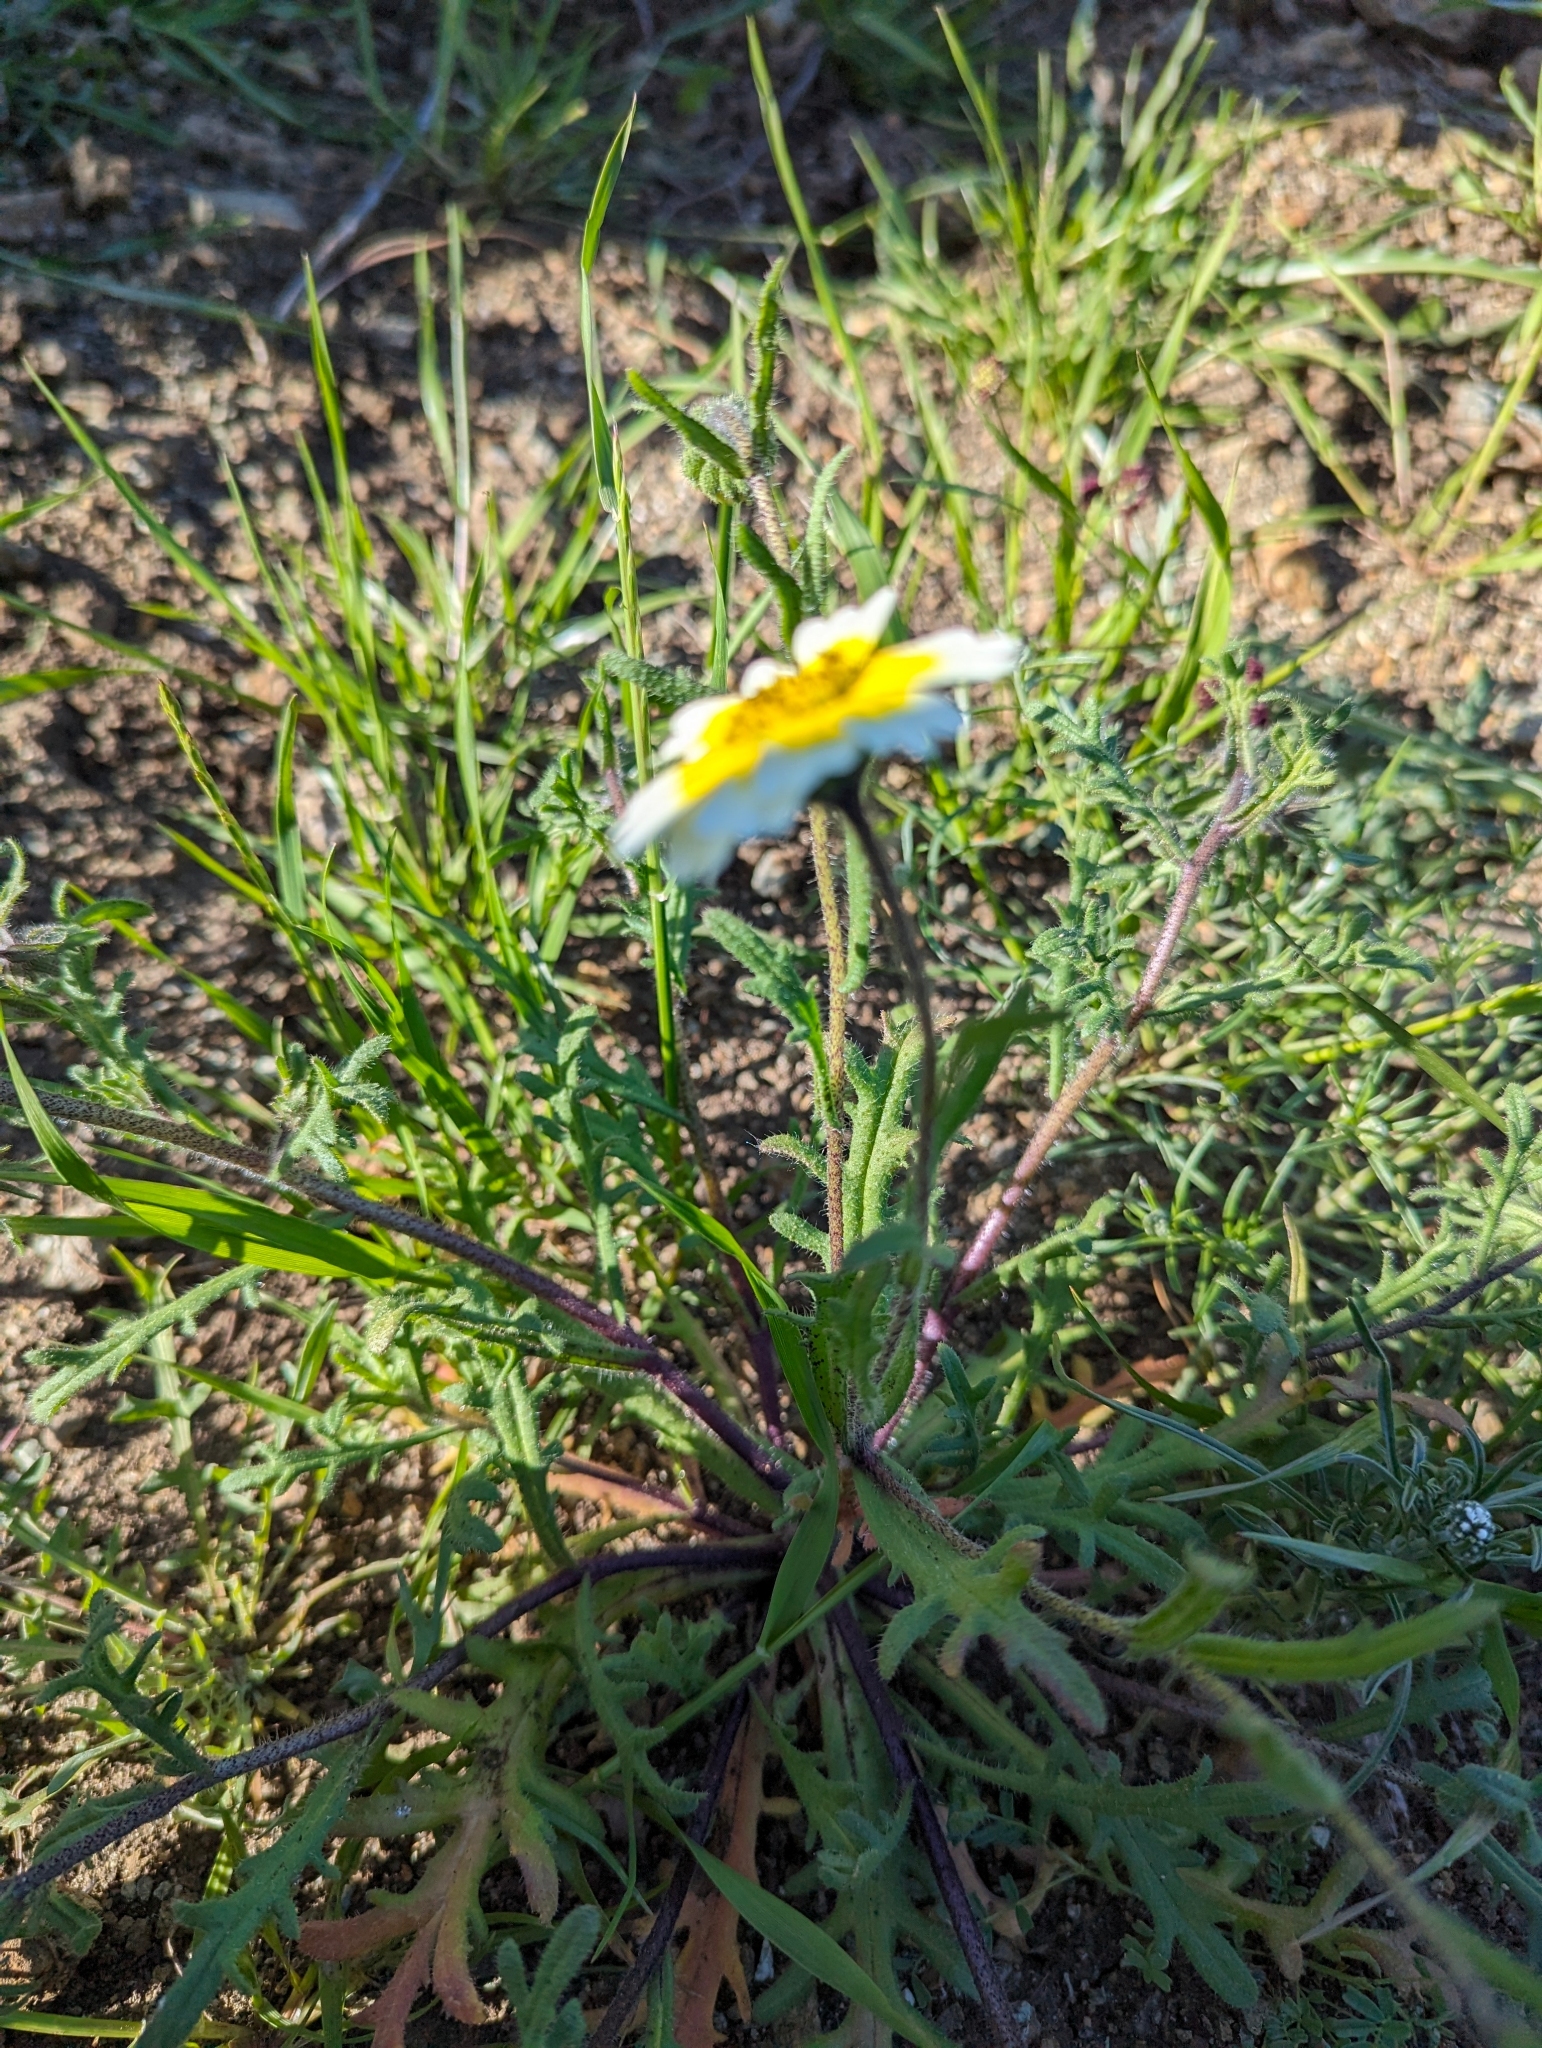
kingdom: Plantae
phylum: Tracheophyta
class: Magnoliopsida
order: Asterales
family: Asteraceae
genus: Layia
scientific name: Layia gaillardioides
